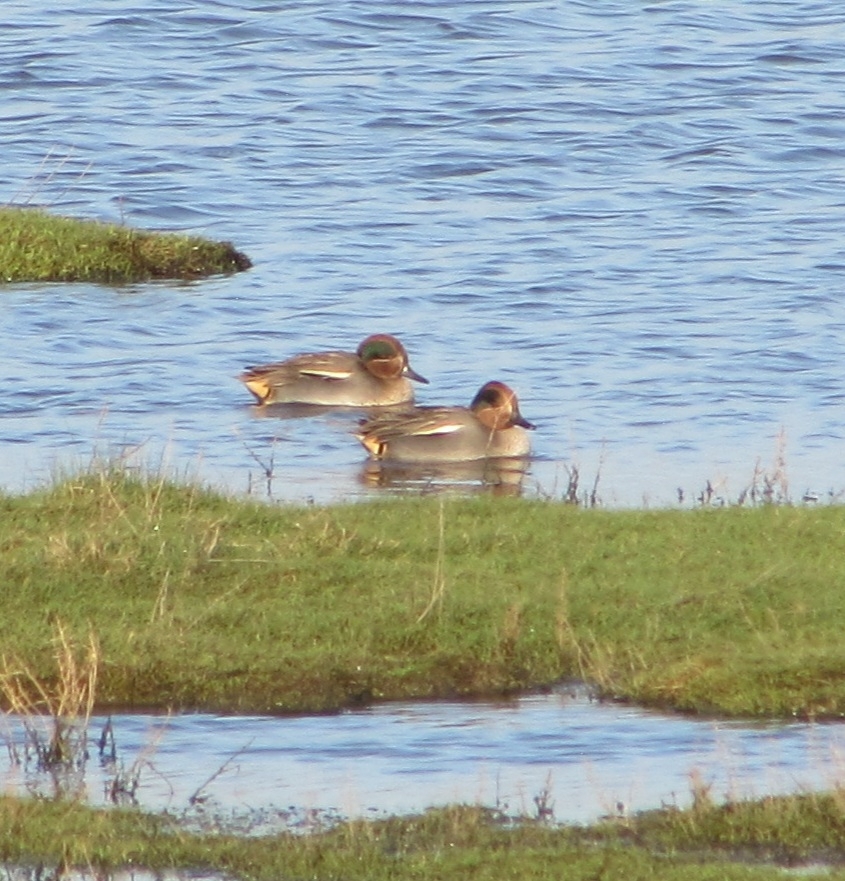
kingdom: Animalia
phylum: Chordata
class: Aves
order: Anseriformes
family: Anatidae
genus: Anas
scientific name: Anas crecca
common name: Eurasian teal
